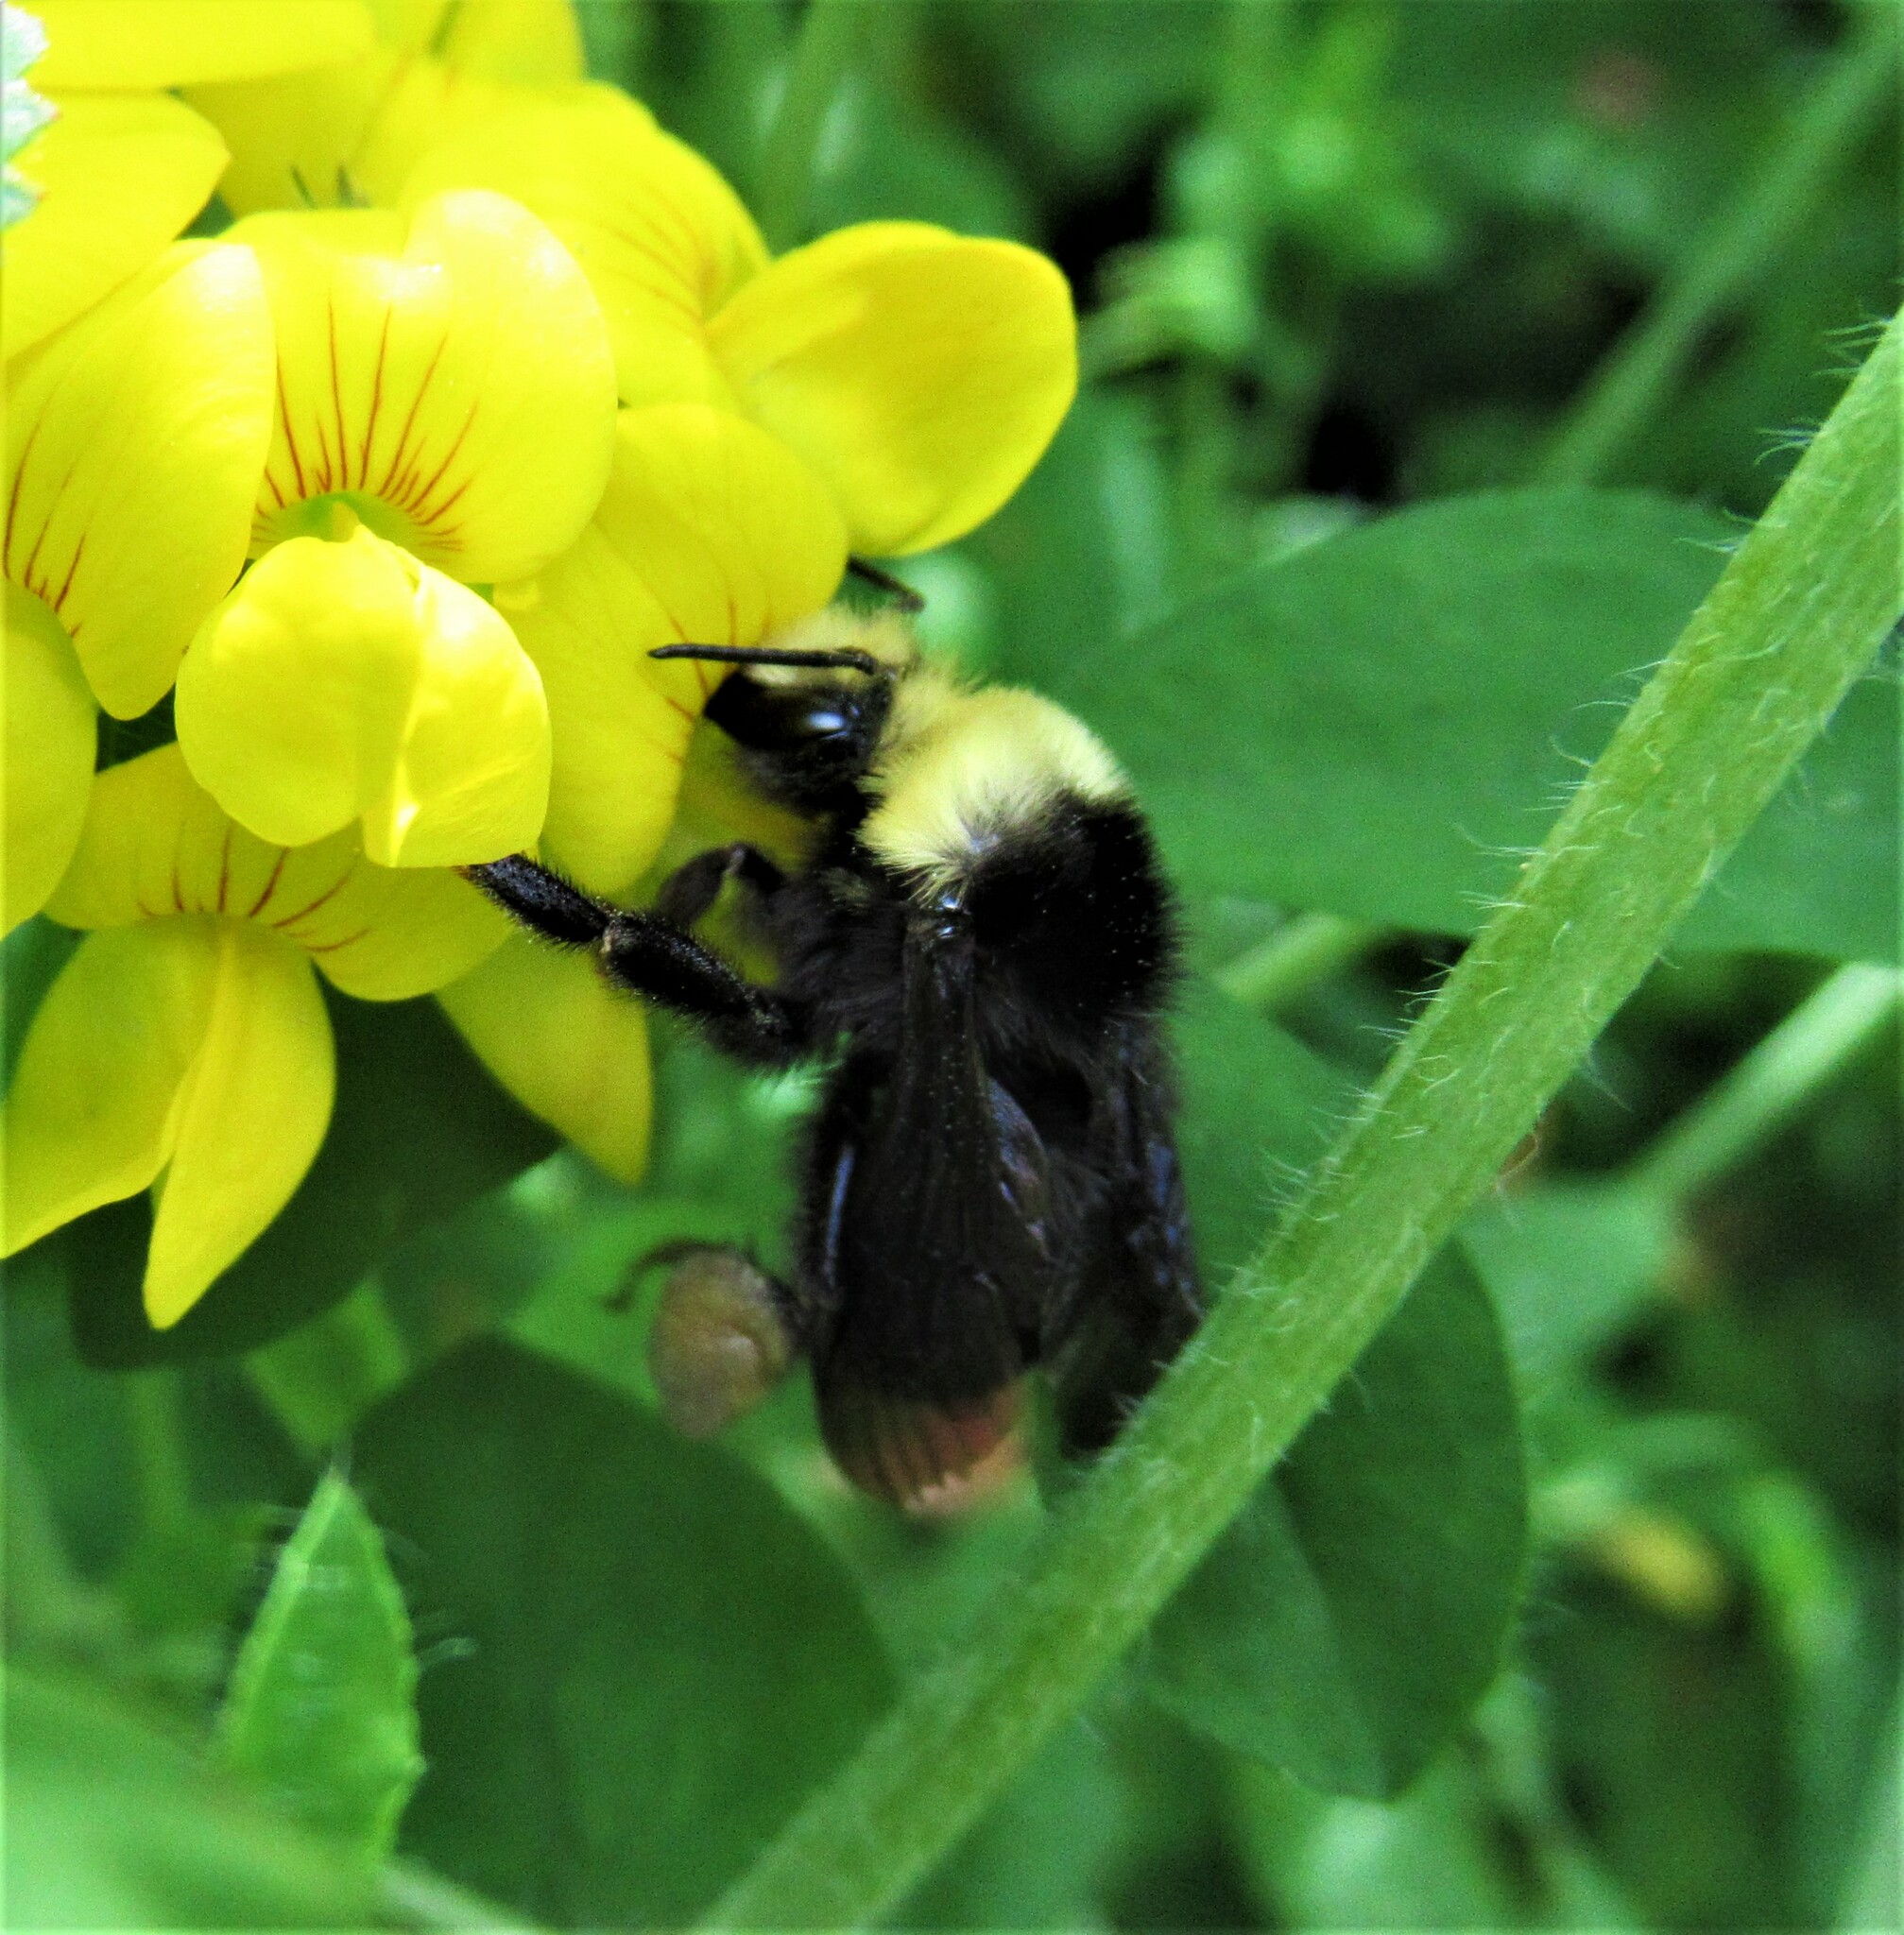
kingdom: Animalia
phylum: Arthropoda
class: Insecta
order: Hymenoptera
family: Apidae
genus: Bombus
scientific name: Bombus vosnesenskii
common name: Vosnesensky bumble bee
